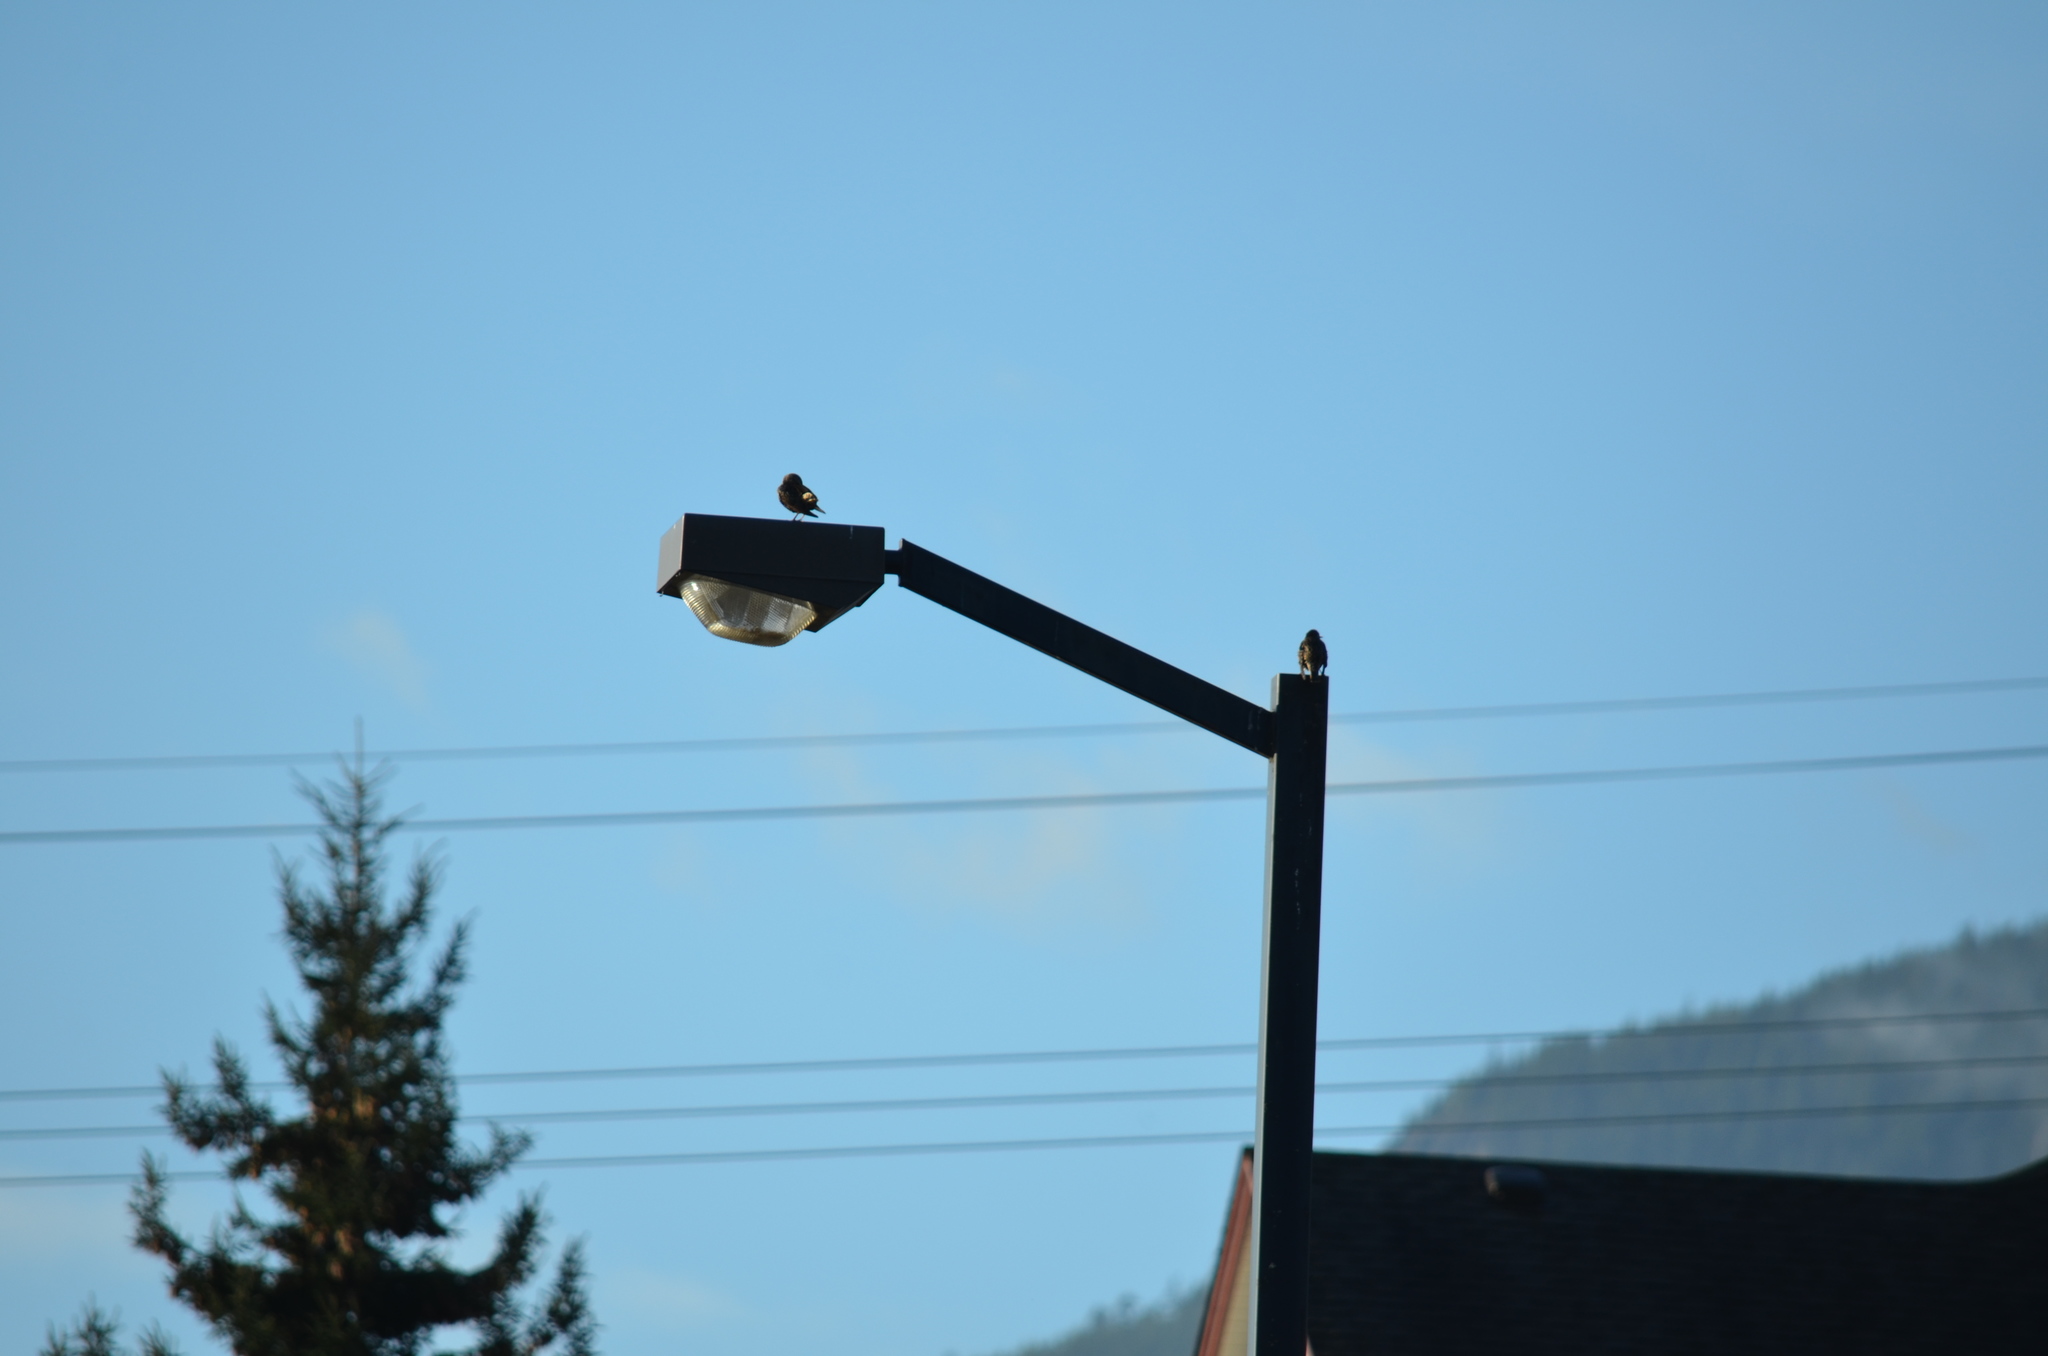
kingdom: Animalia
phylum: Chordata
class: Aves
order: Passeriformes
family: Sturnidae
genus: Sturnus
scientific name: Sturnus vulgaris
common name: Common starling
